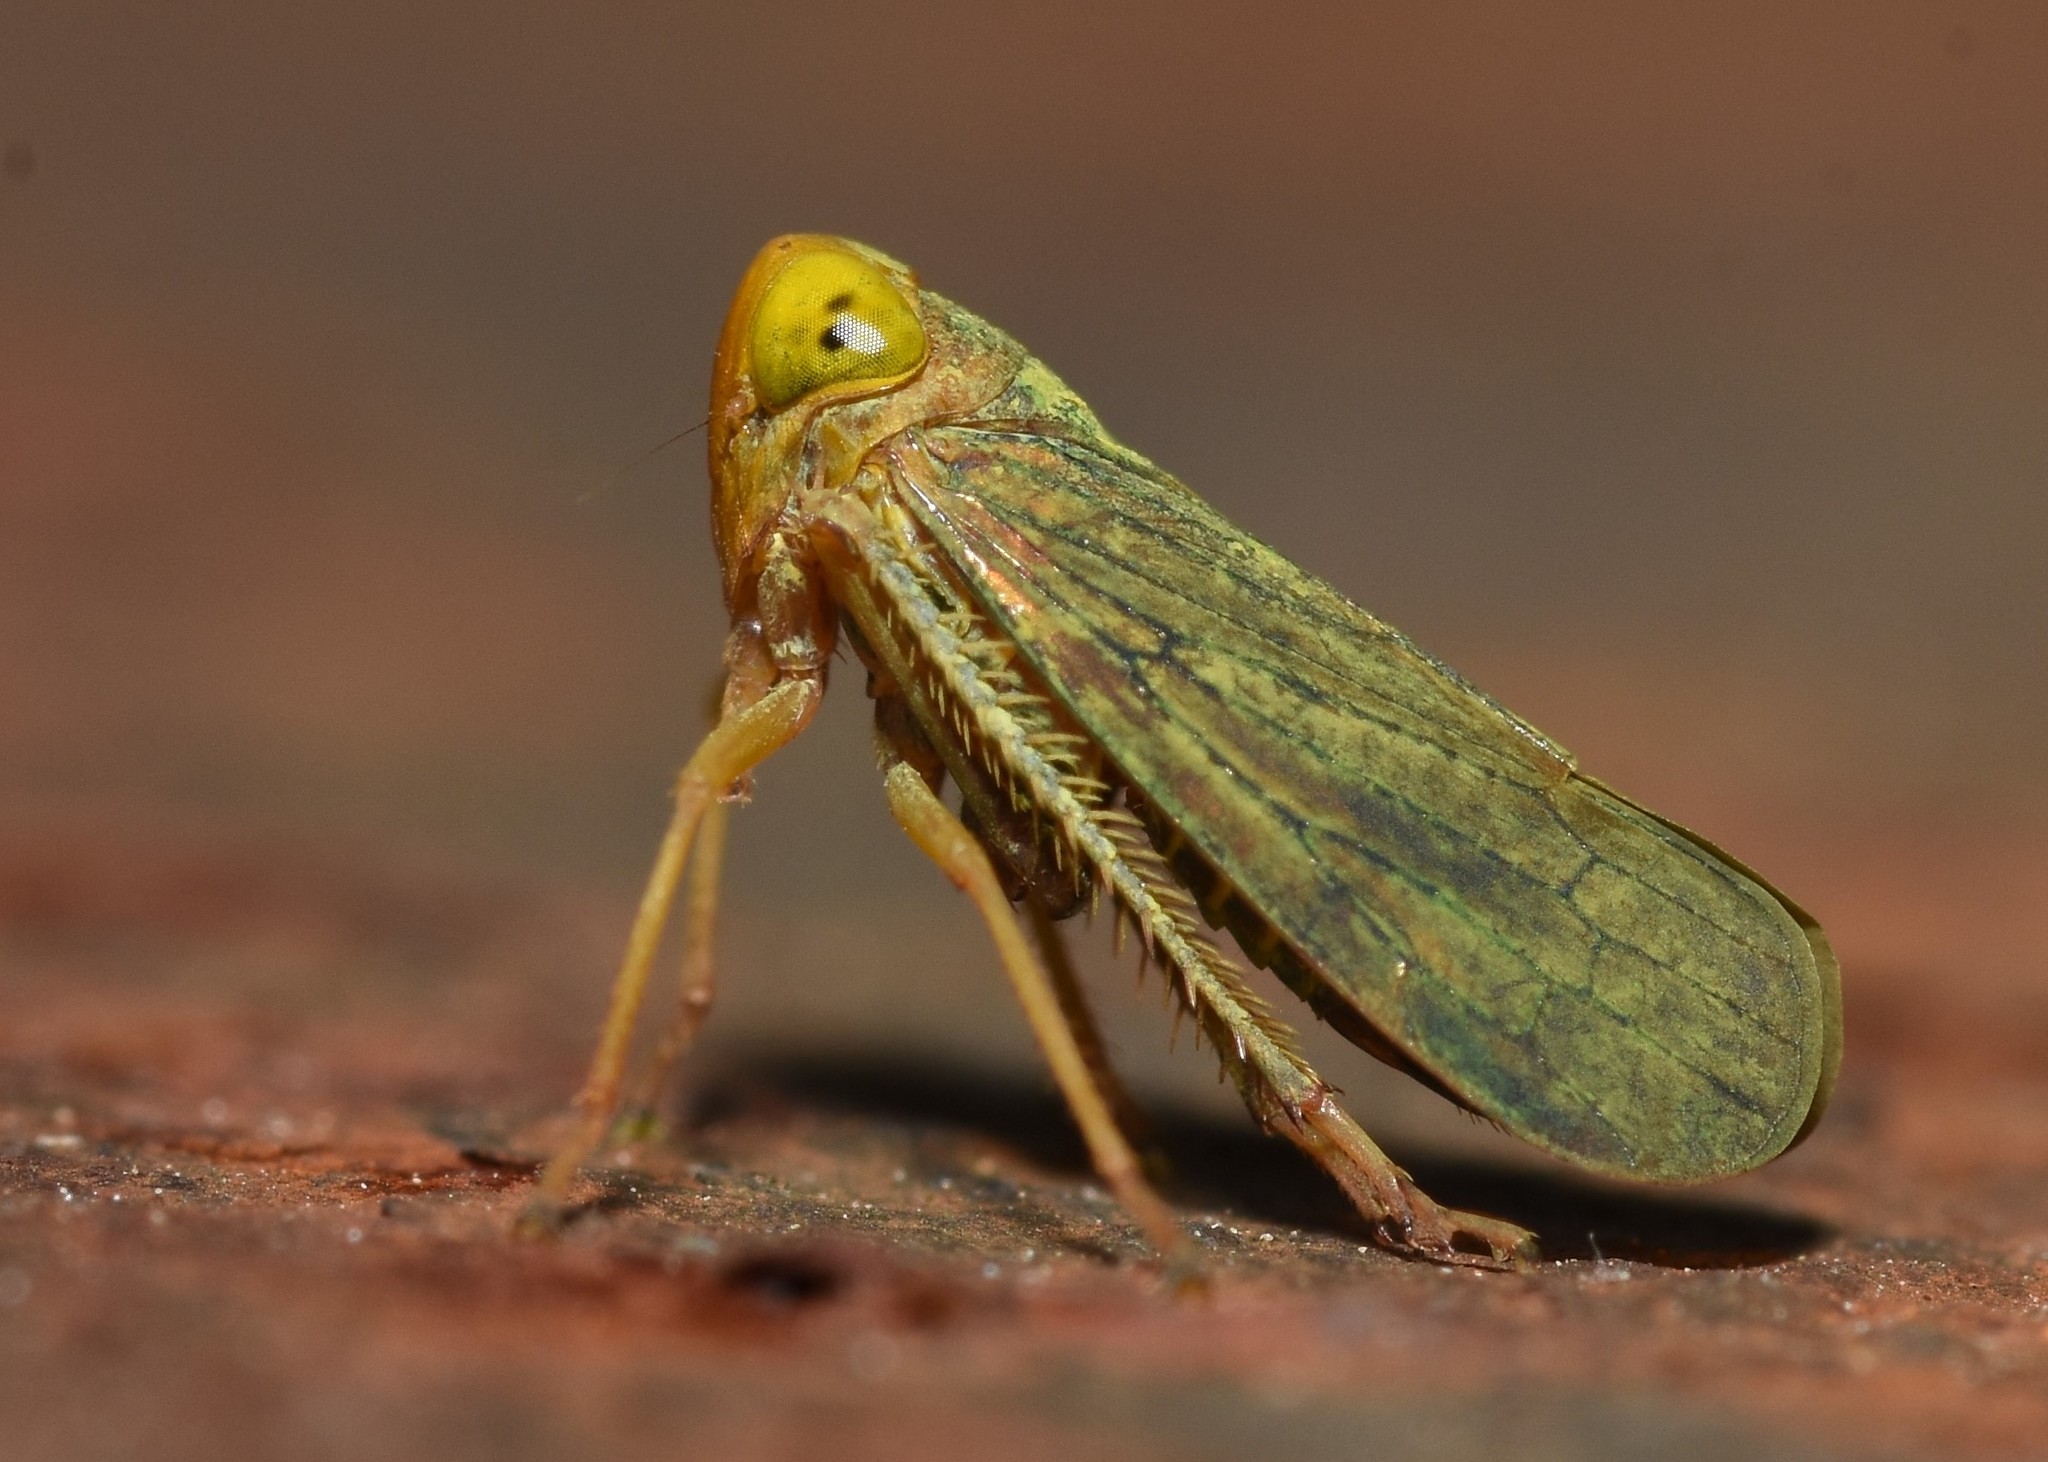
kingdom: Animalia
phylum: Arthropoda
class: Insecta
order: Hemiptera
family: Cicadellidae
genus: Jikradia
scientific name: Jikradia olitoria
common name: Coppery leafhopper
